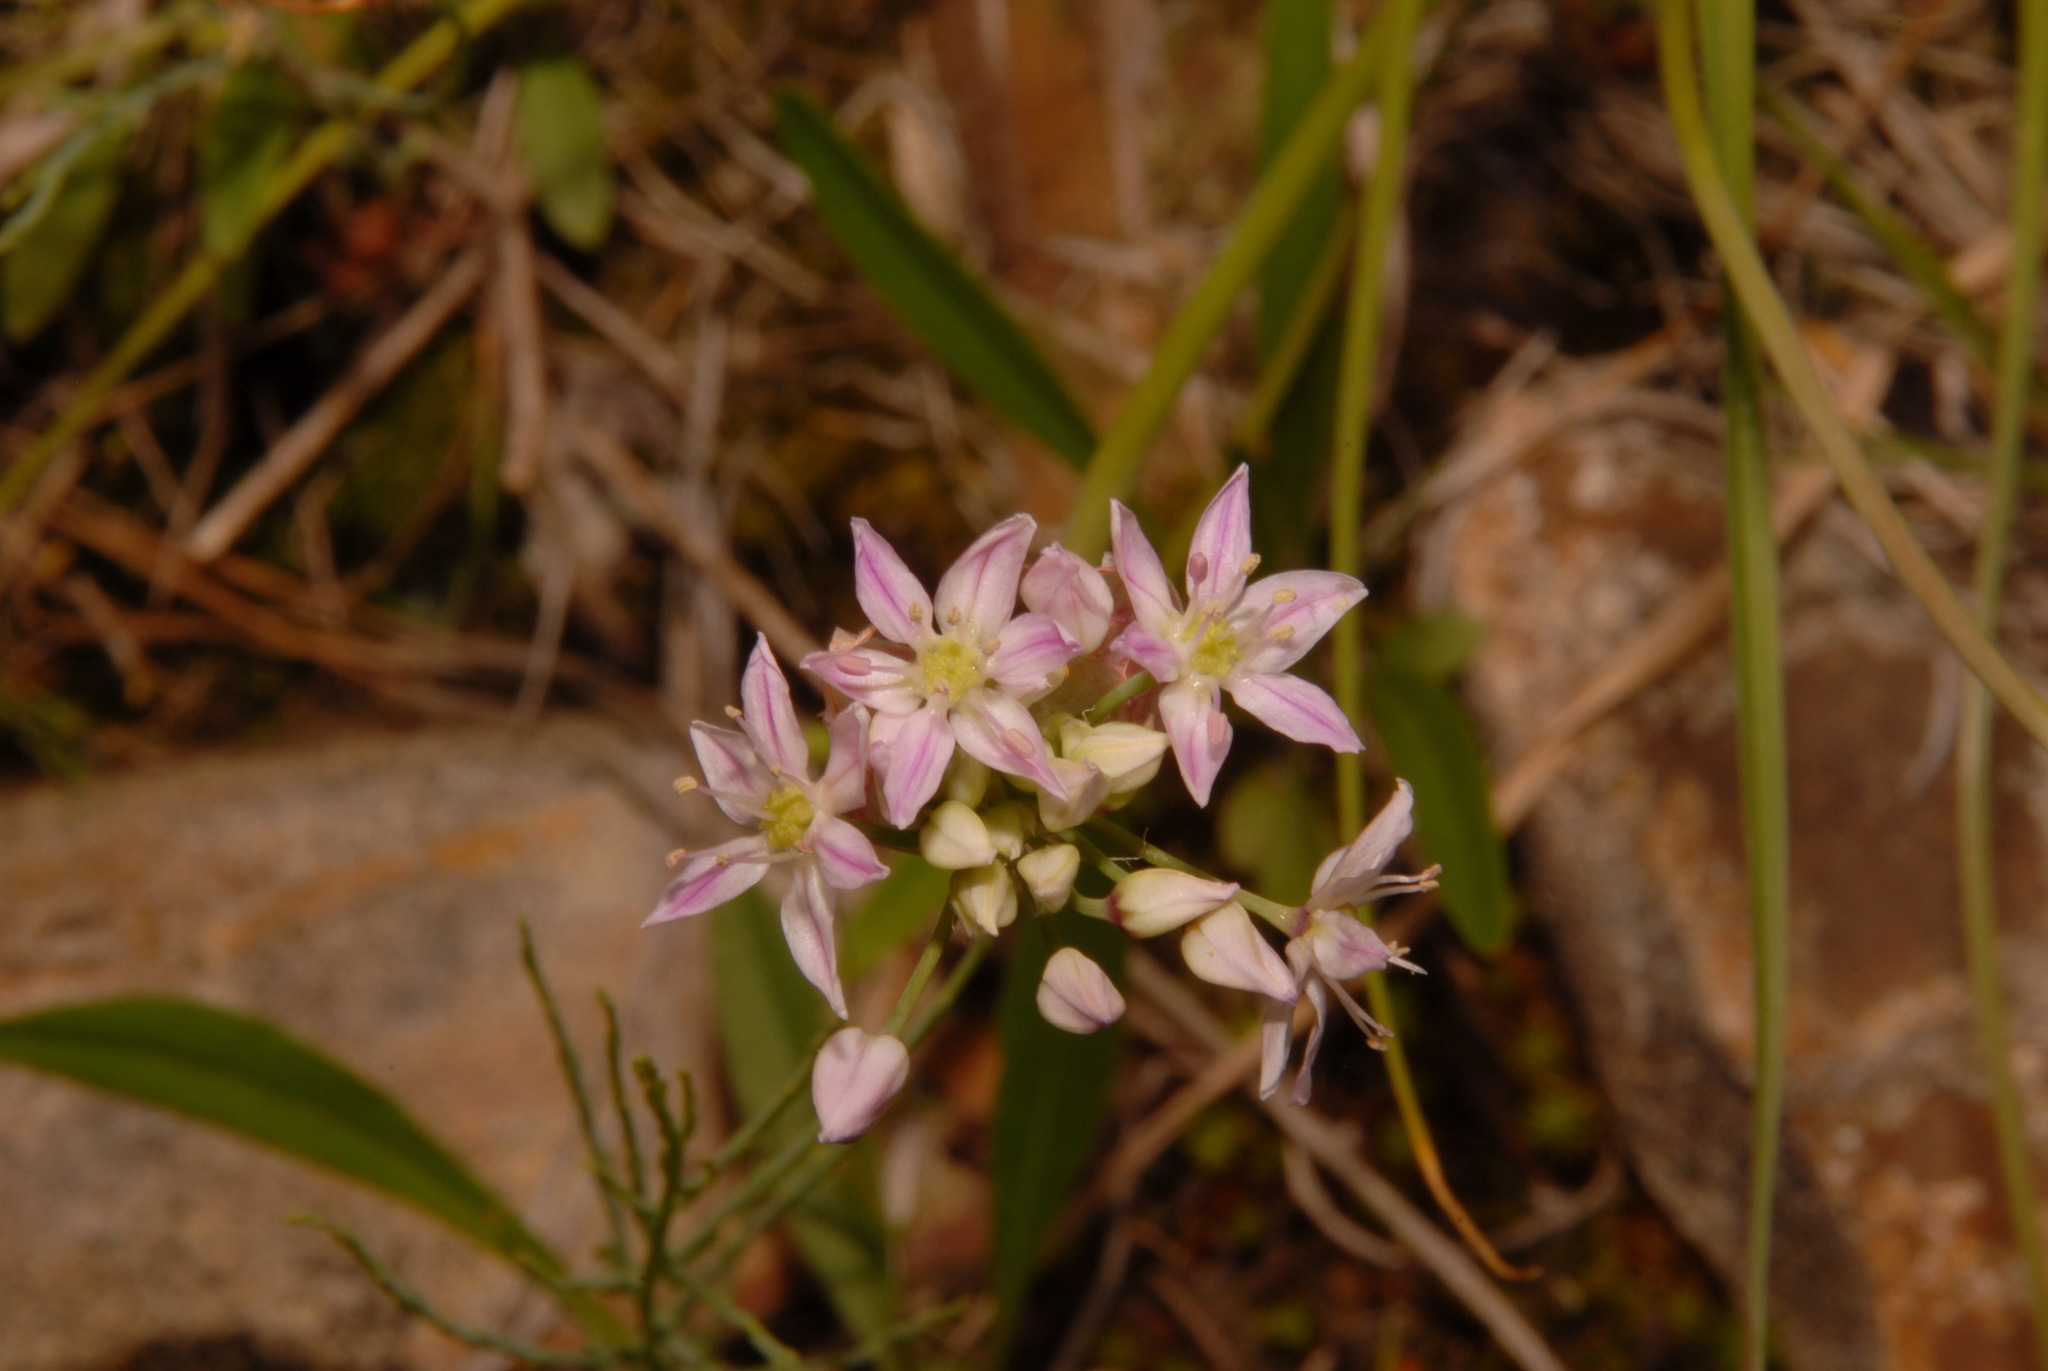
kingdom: Plantae
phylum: Tracheophyta
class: Liliopsida
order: Asparagales
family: Amaryllidaceae
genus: Allium
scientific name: Allium speculae
